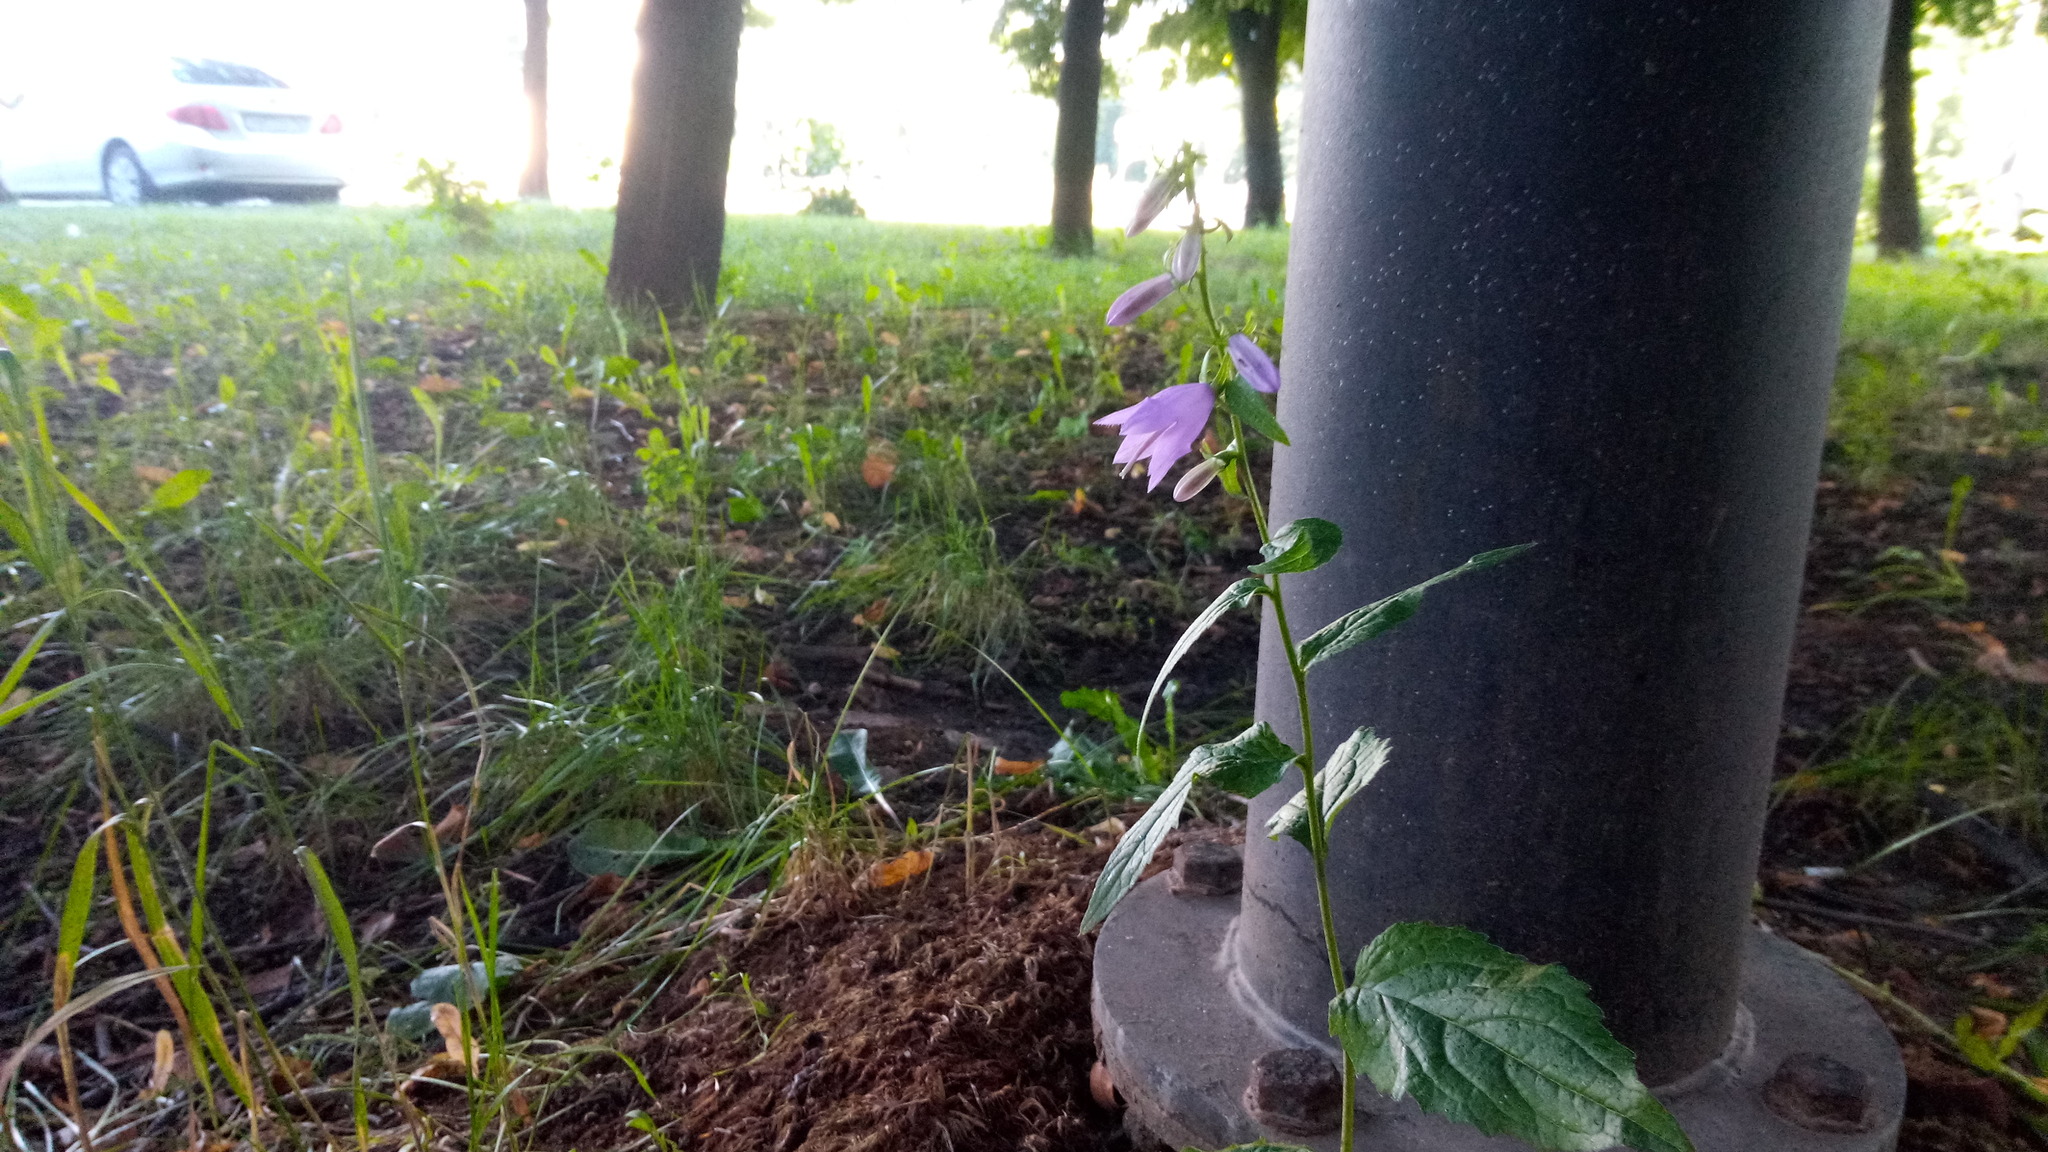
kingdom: Plantae
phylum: Tracheophyta
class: Magnoliopsida
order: Asterales
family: Campanulaceae
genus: Campanula
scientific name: Campanula rapunculoides
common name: Creeping bellflower
